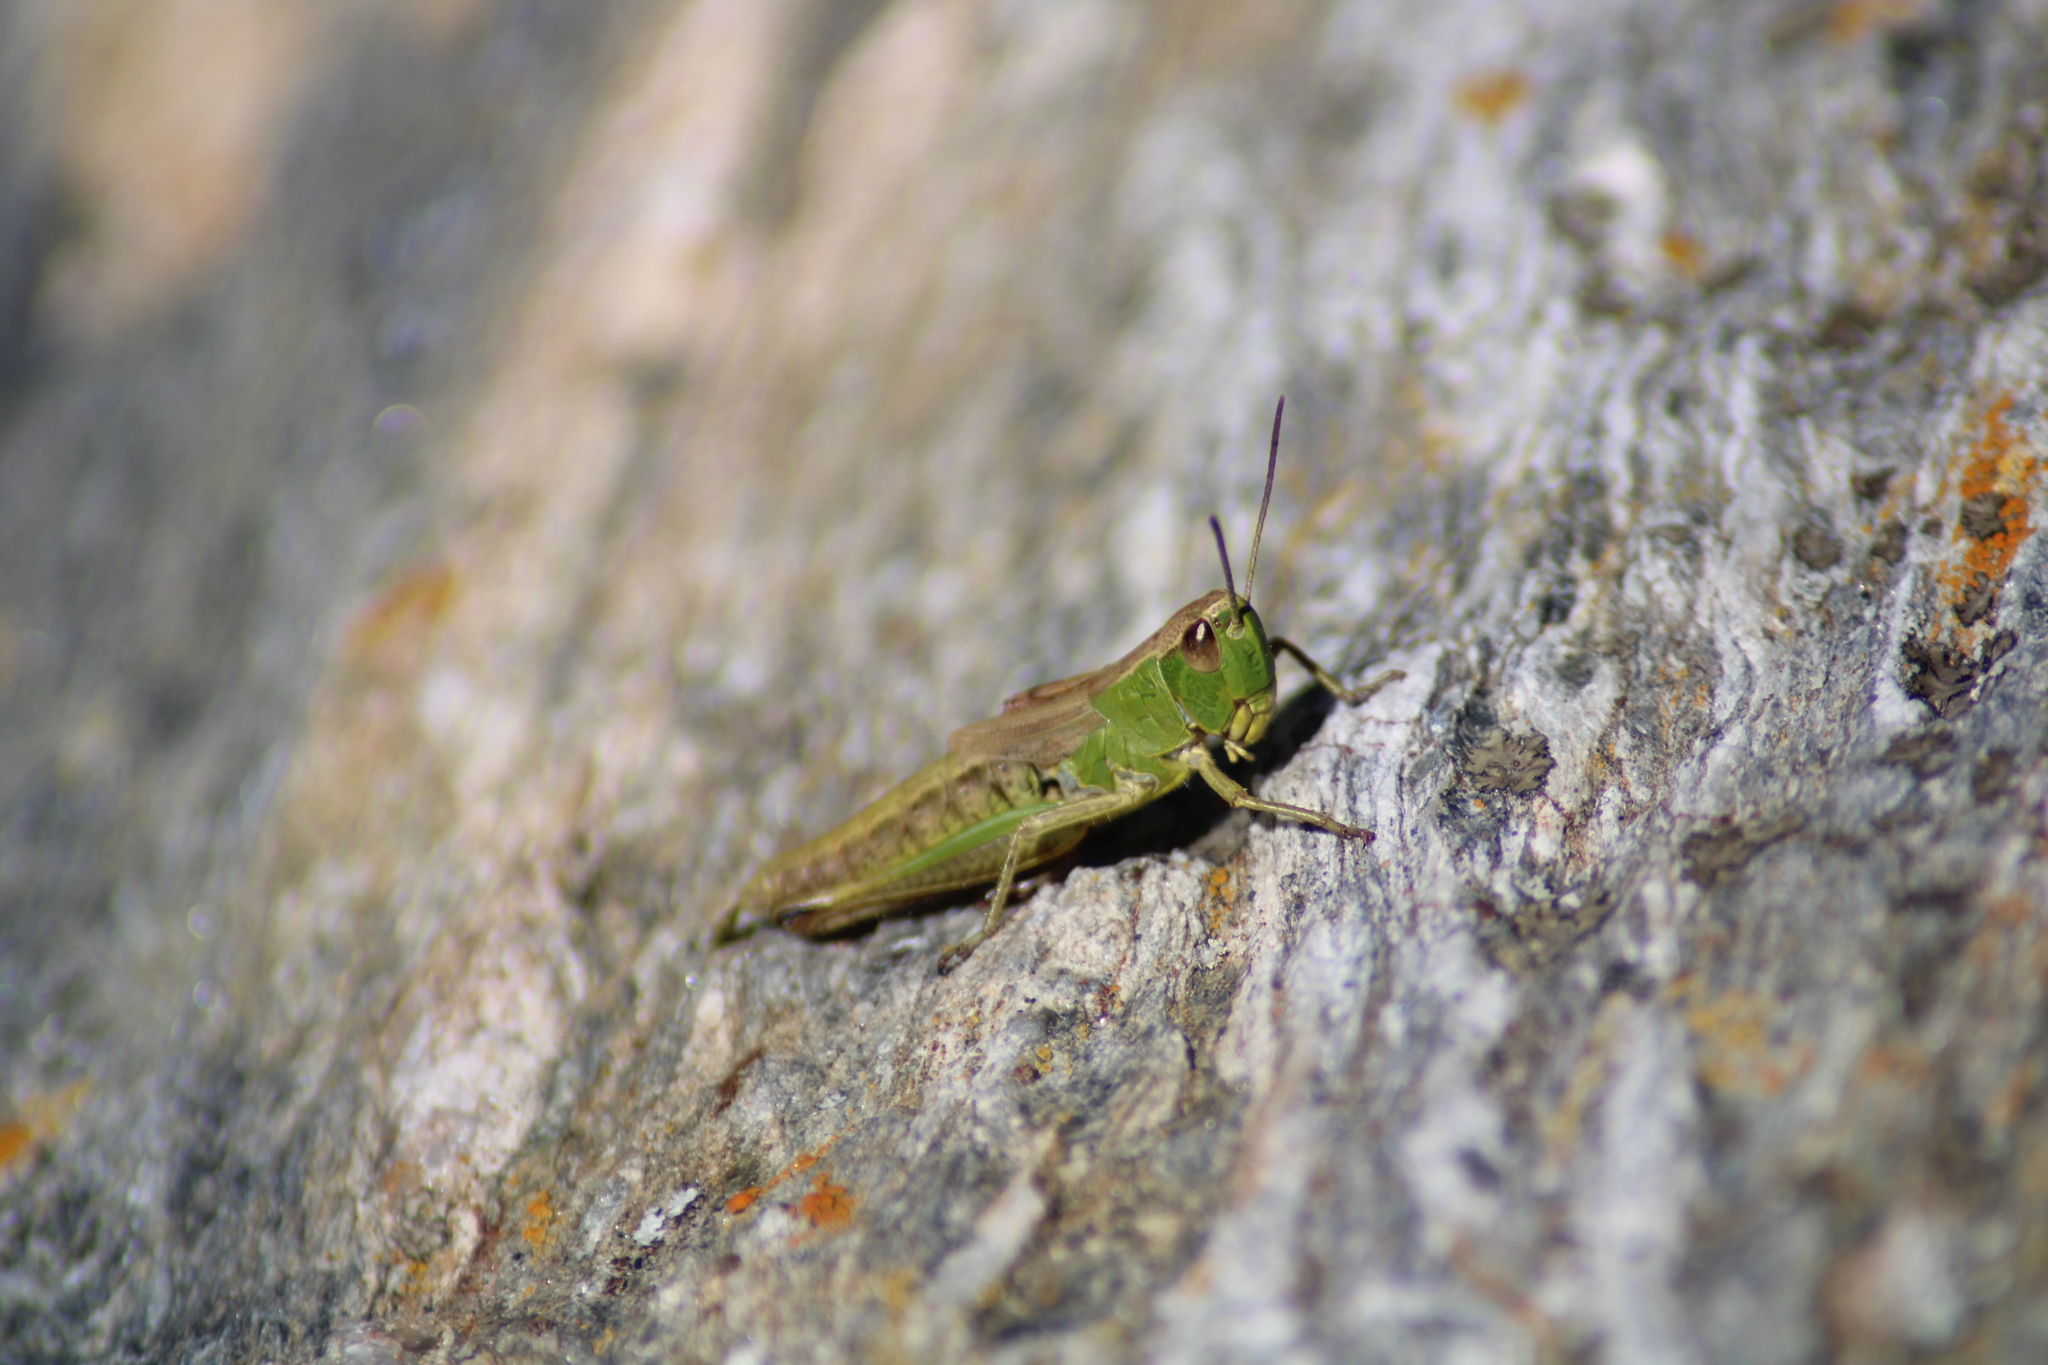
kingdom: Animalia
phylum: Arthropoda
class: Insecta
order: Orthoptera
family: Acrididae
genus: Pseudochorthippus
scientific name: Pseudochorthippus parallelus
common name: Meadow grasshopper
